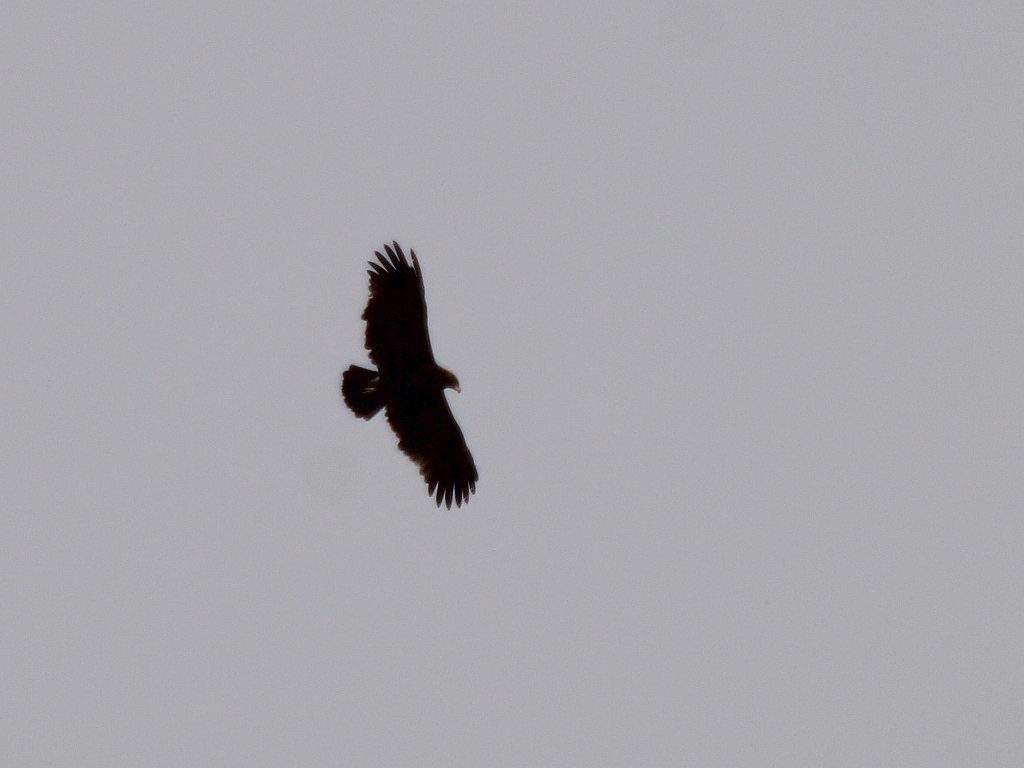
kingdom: Animalia
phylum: Chordata
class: Aves
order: Accipitriformes
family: Accipitridae
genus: Aquila
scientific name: Aquila clanga
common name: Greater spotted eagle
